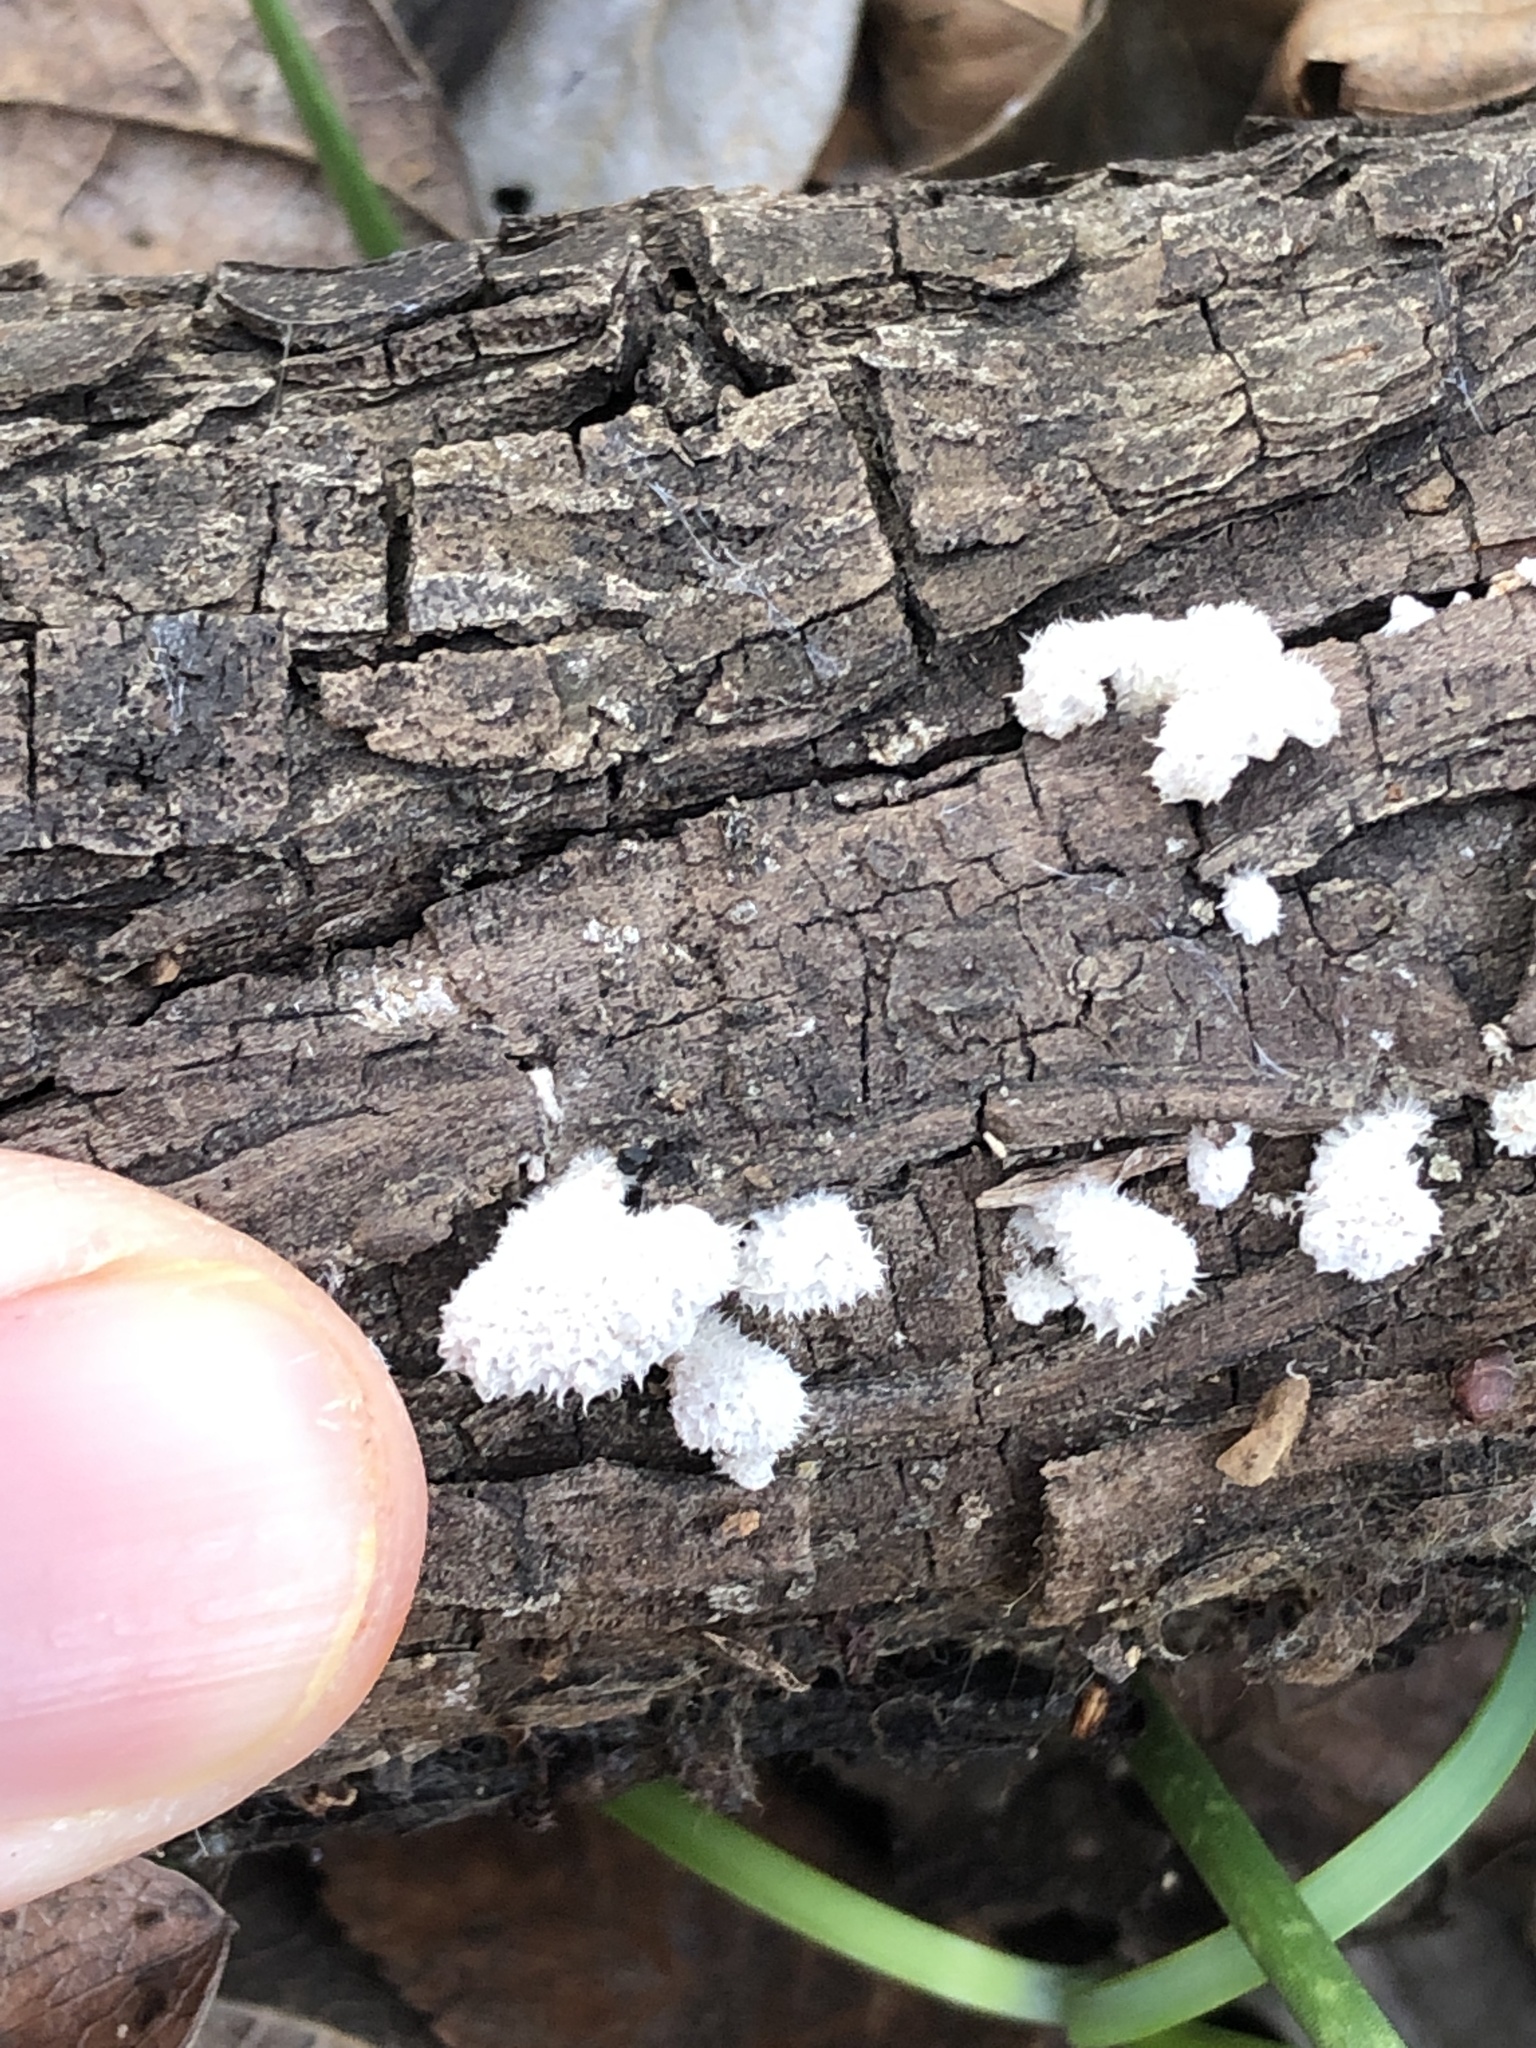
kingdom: Fungi
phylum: Basidiomycota
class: Agaricomycetes
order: Agaricales
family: Schizophyllaceae
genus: Schizophyllum
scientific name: Schizophyllum commune
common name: Common porecrust
